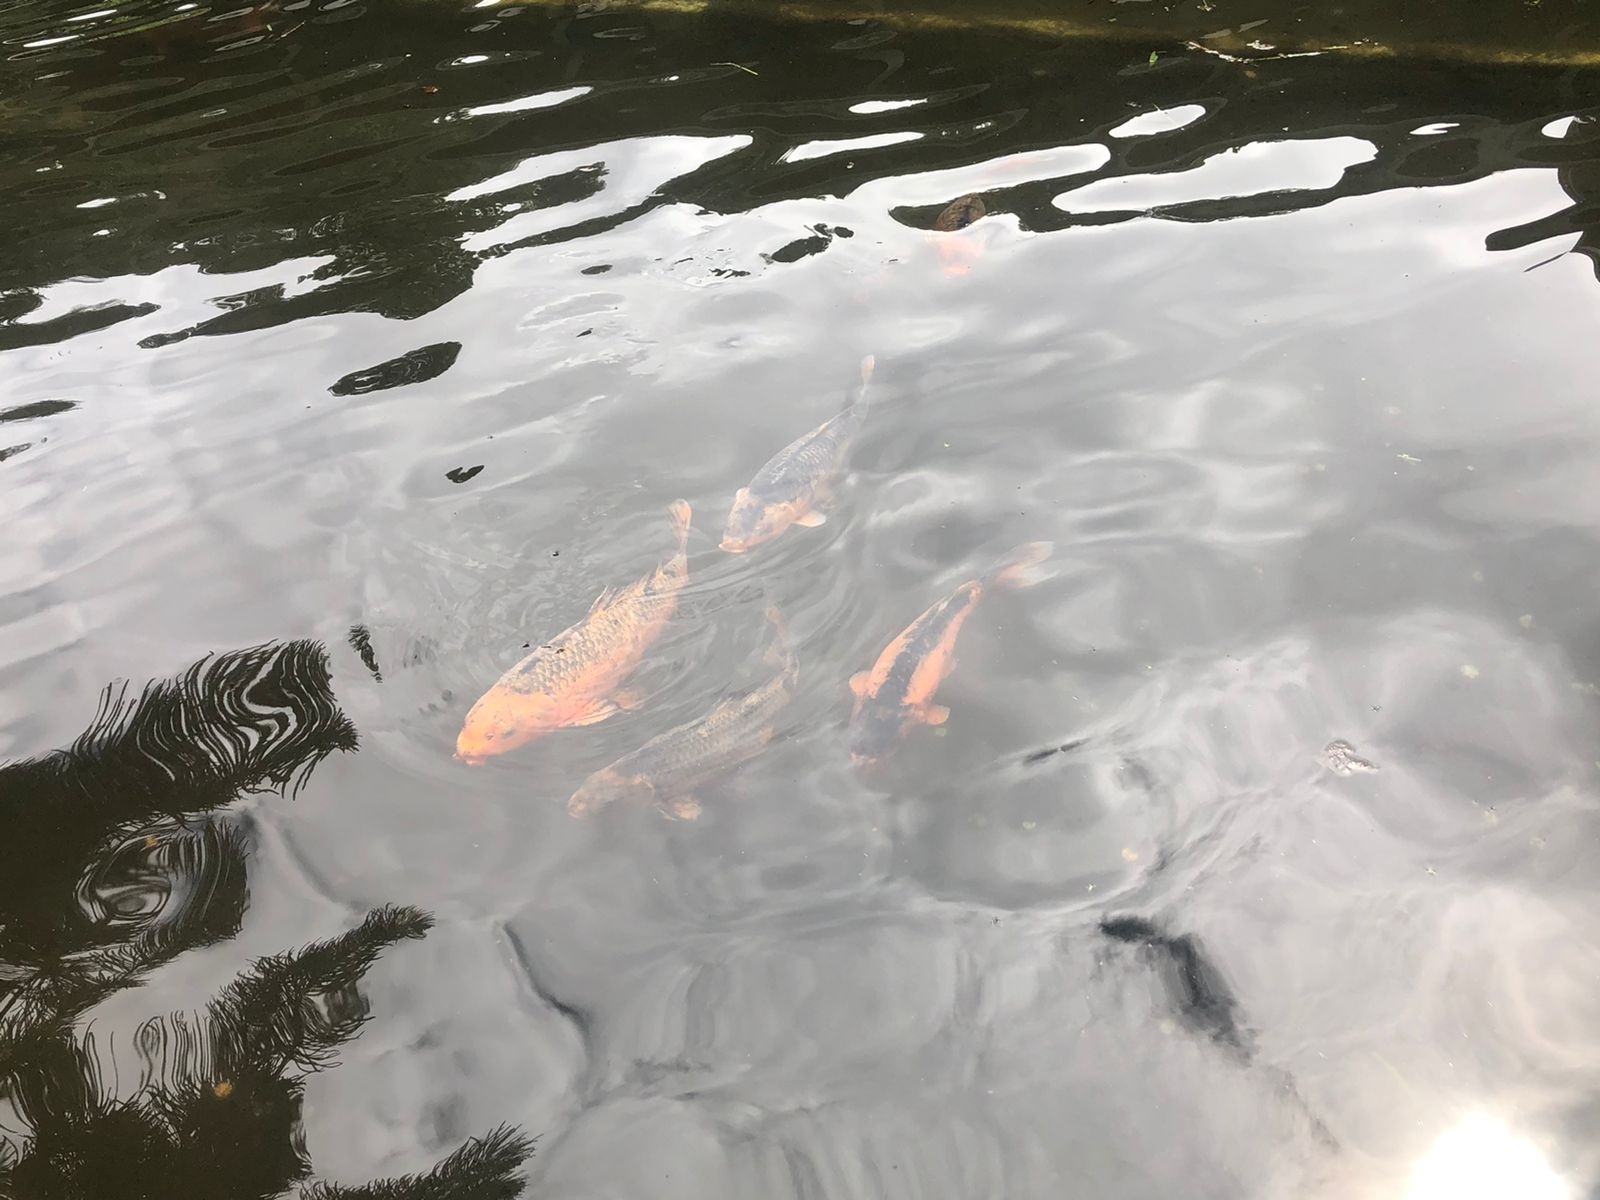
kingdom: Animalia
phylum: Chordata
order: Cypriniformes
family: Cyprinidae
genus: Cyprinus
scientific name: Cyprinus rubrofuscus
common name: Koi
